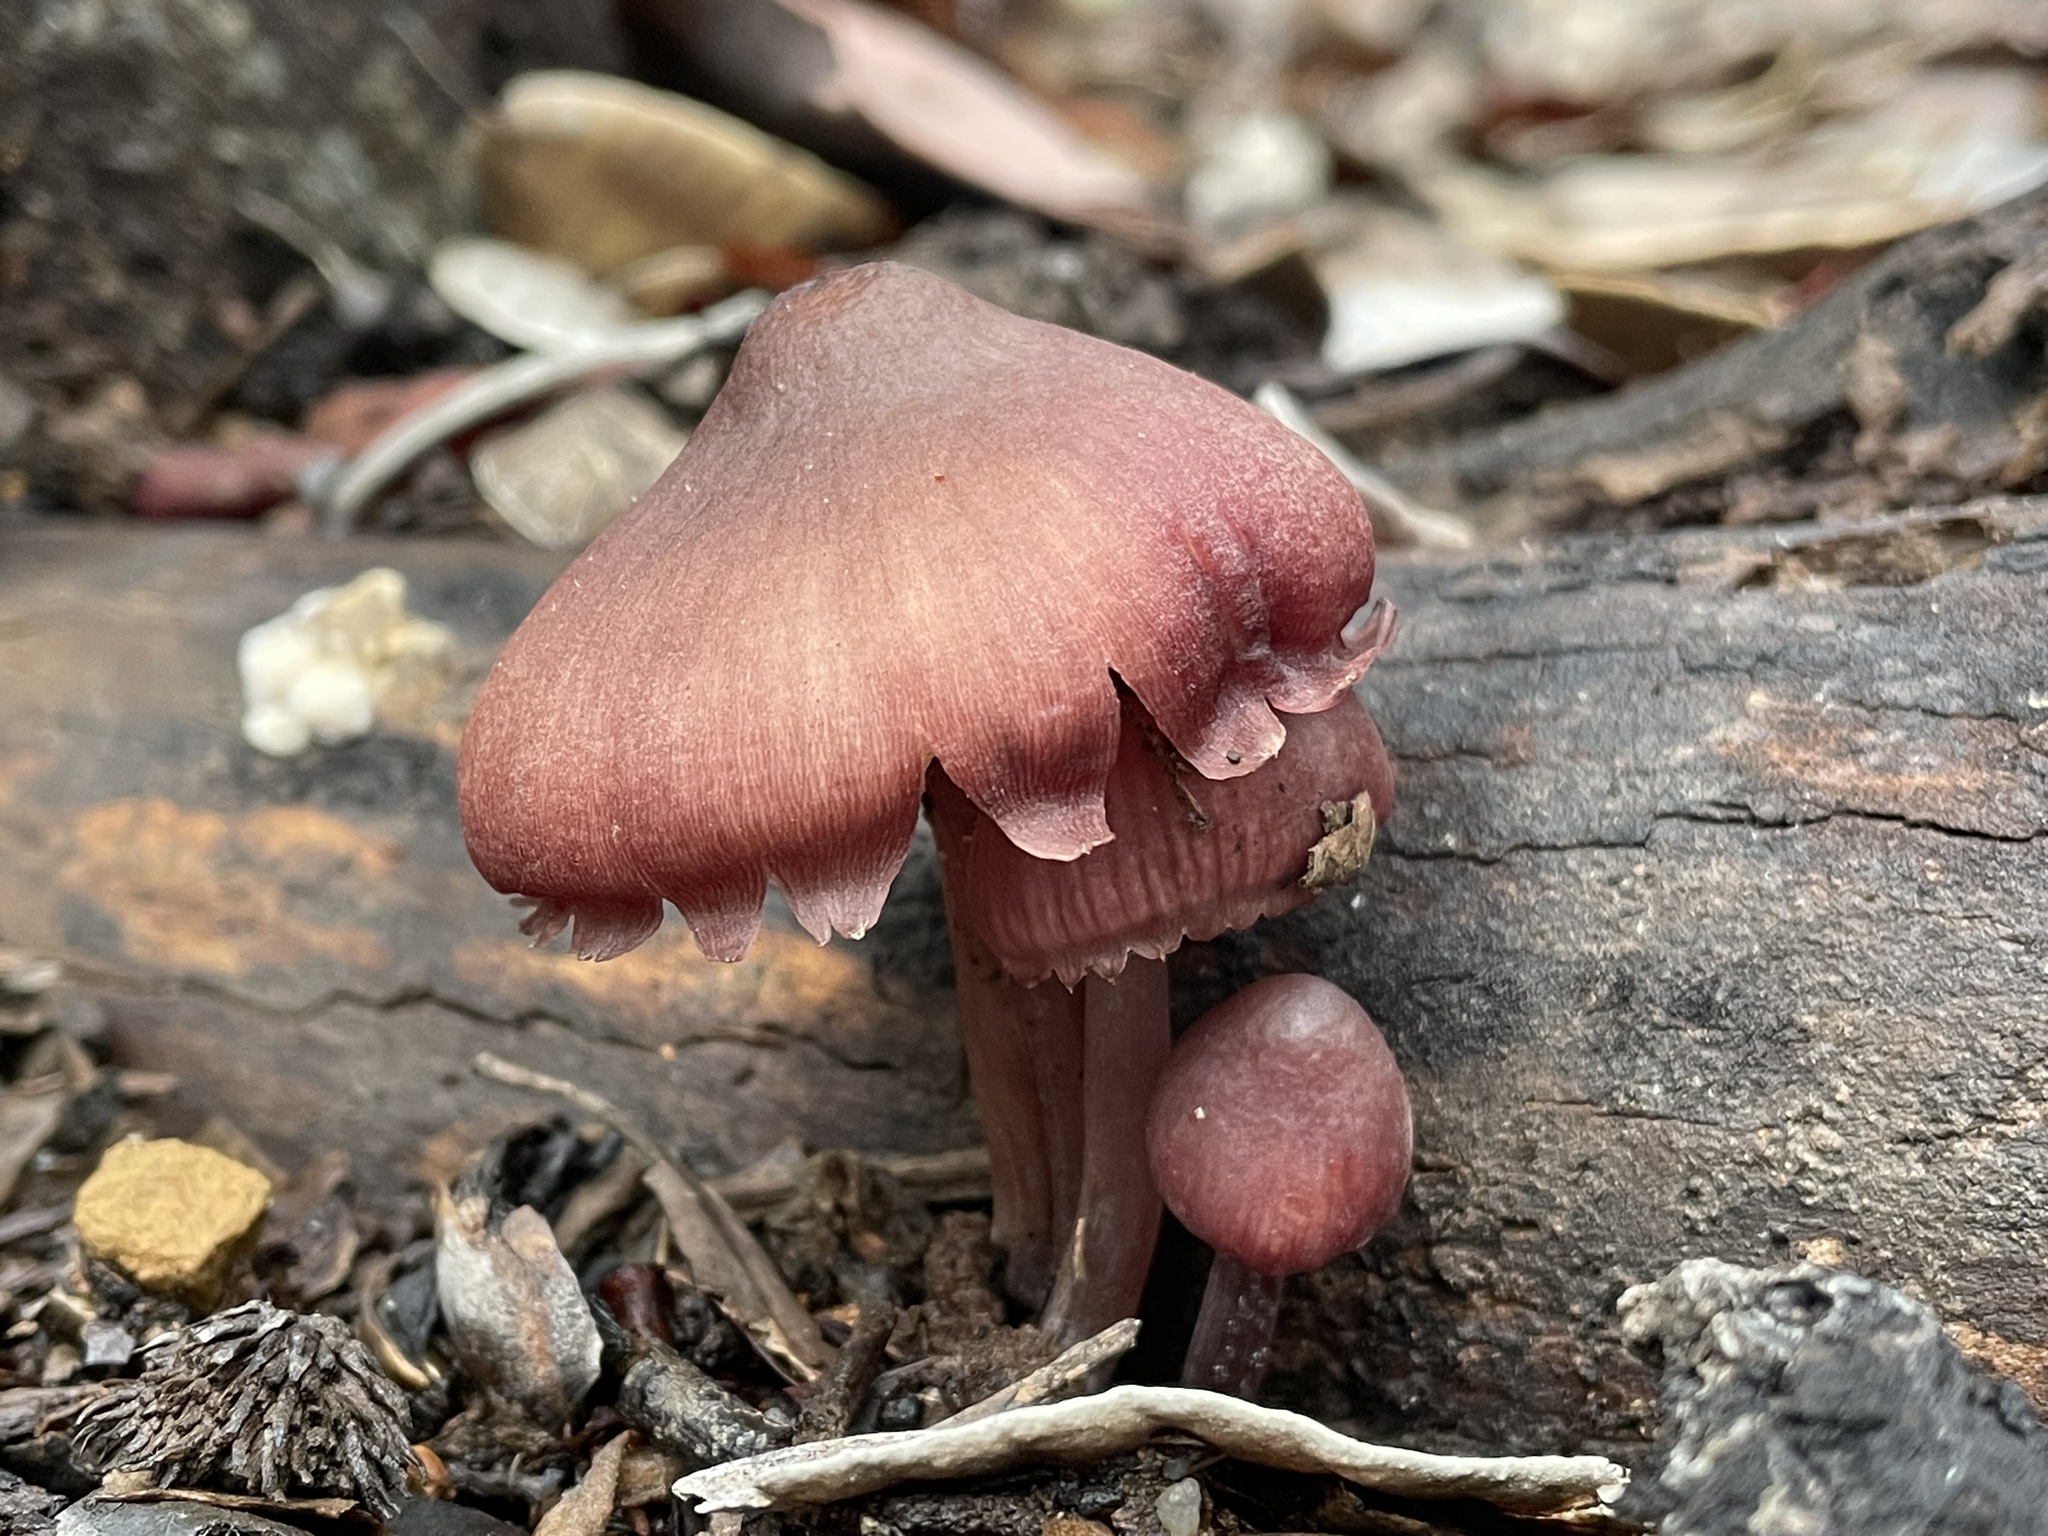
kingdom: Fungi
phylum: Basidiomycota
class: Agaricomycetes
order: Agaricales
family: Mycenaceae
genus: Mycena
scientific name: Mycena haematopus
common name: Burgundydrop bonnet
